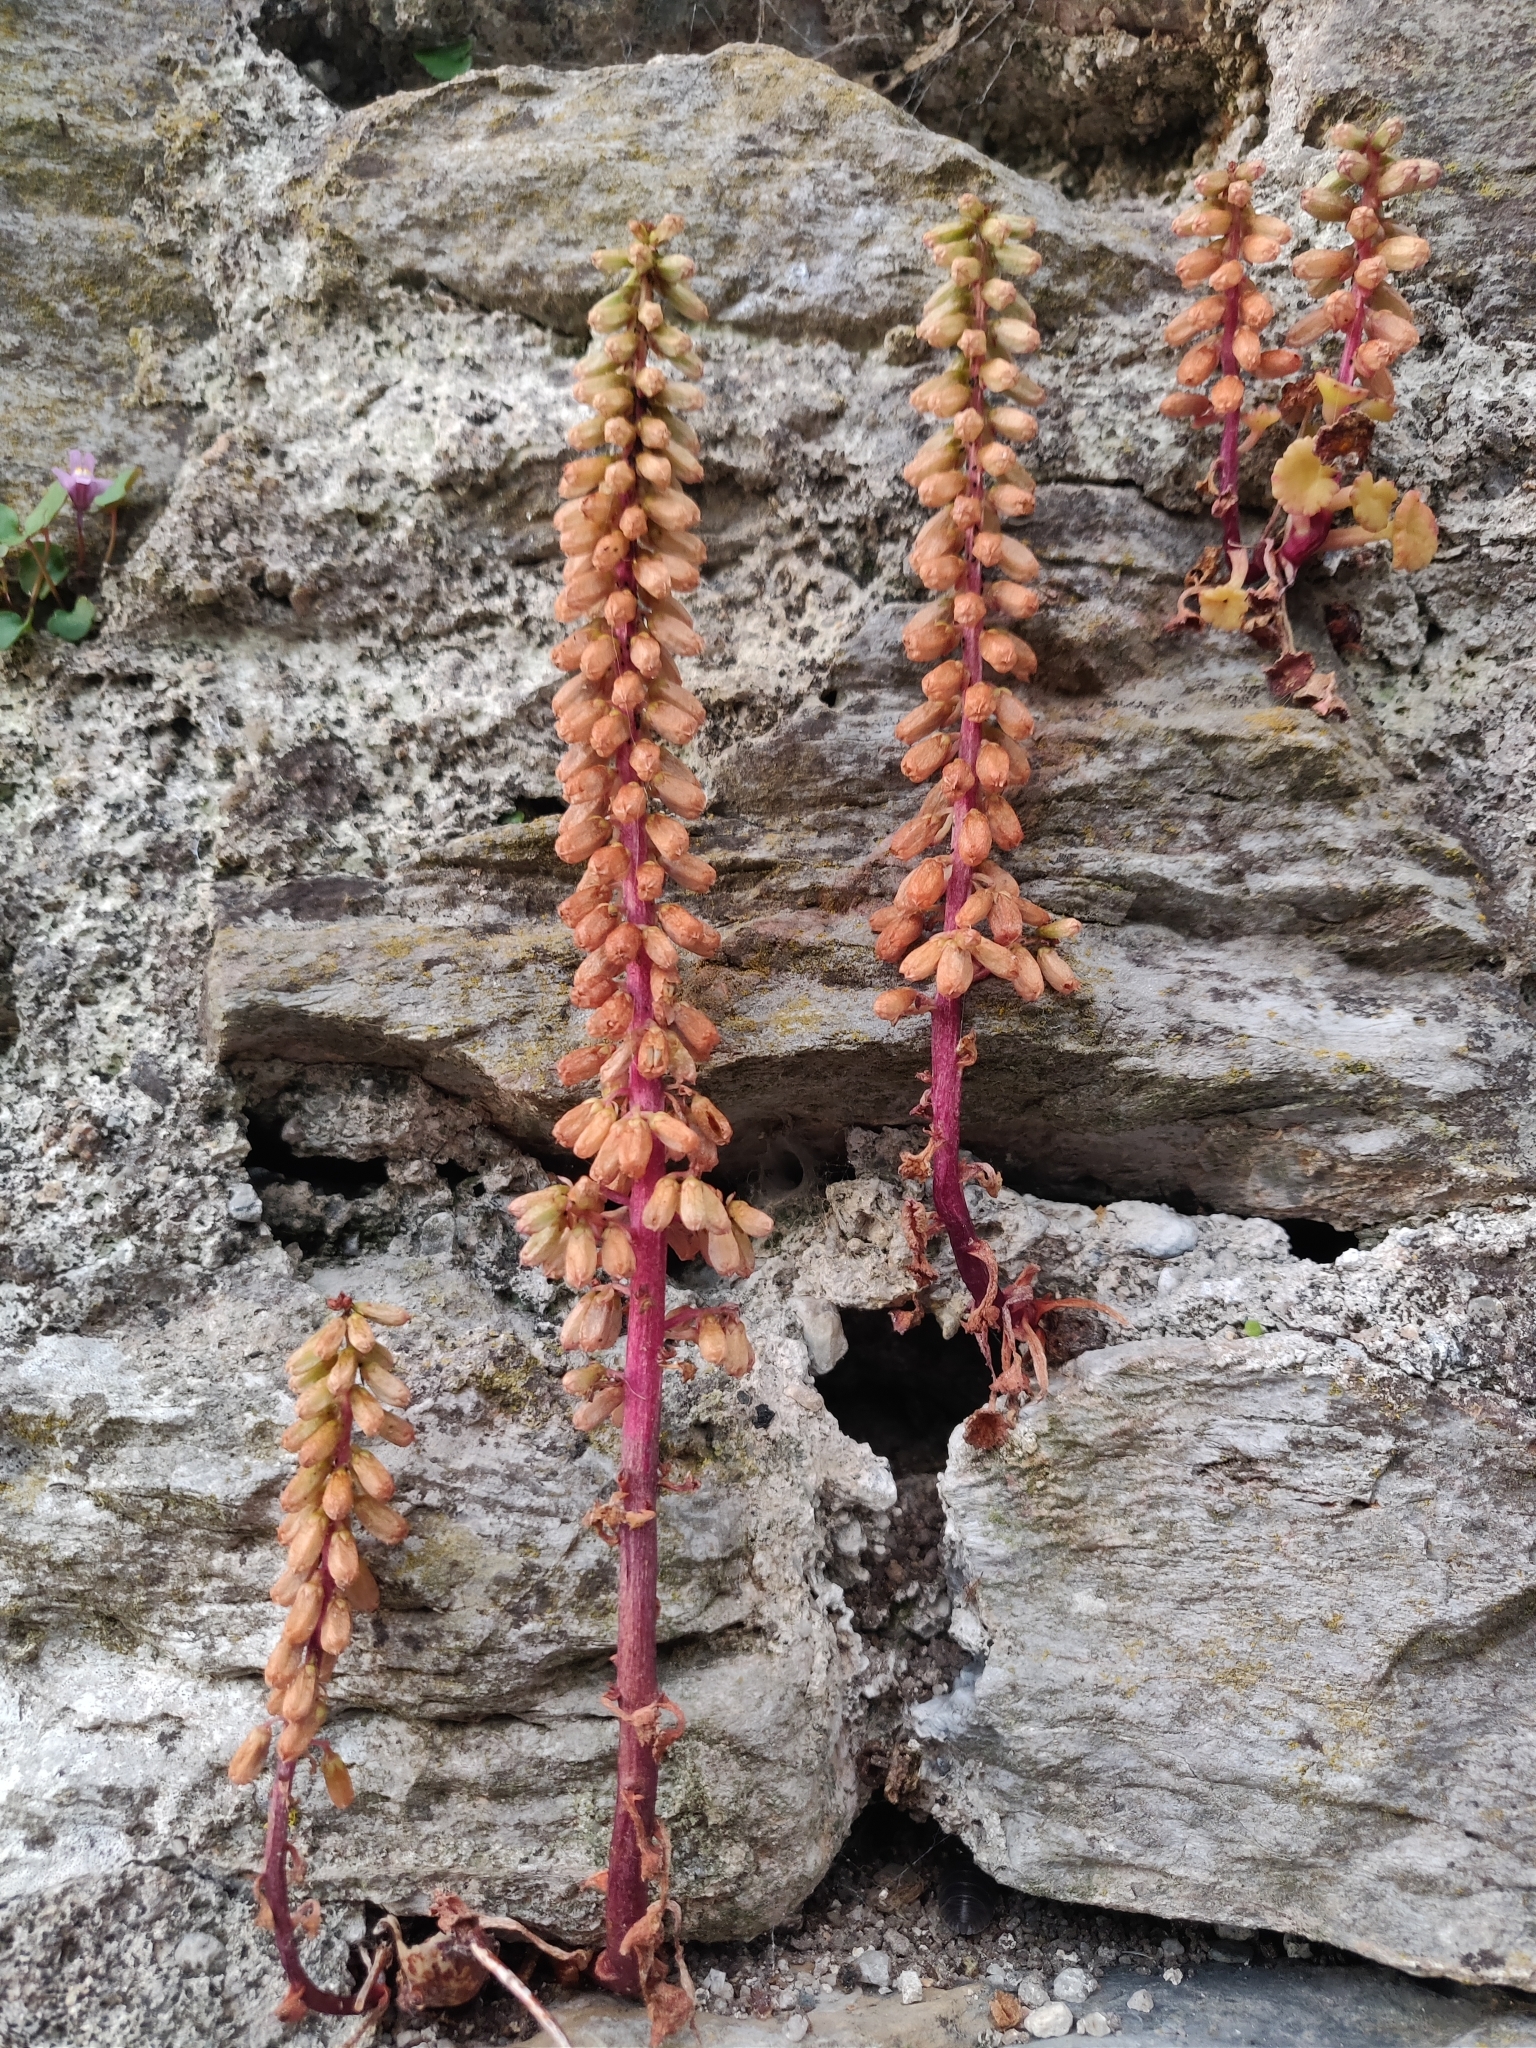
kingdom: Plantae
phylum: Tracheophyta
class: Magnoliopsida
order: Saxifragales
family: Crassulaceae
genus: Umbilicus
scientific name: Umbilicus rupestris
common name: Navelwort
